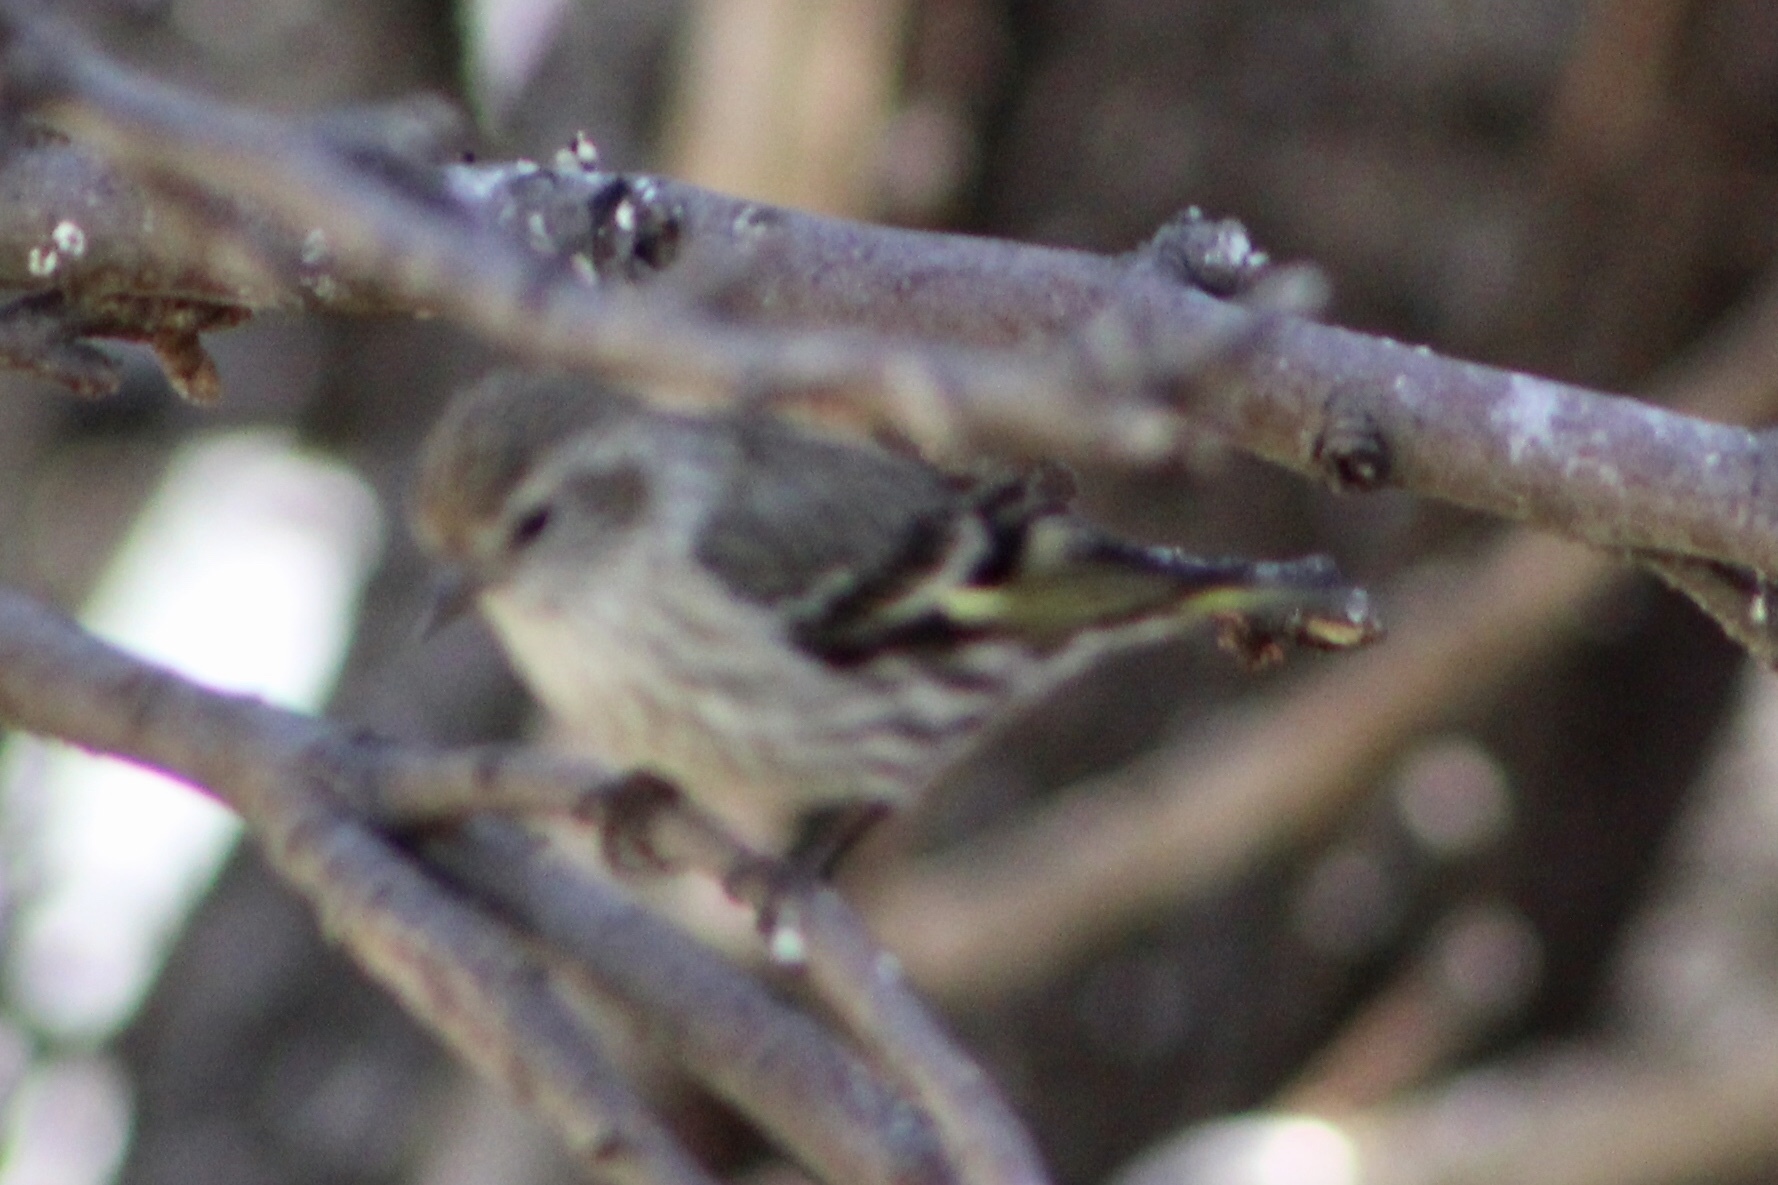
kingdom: Animalia
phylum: Chordata
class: Aves
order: Passeriformes
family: Fringillidae
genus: Spinus
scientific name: Spinus pinus
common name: Pine siskin
